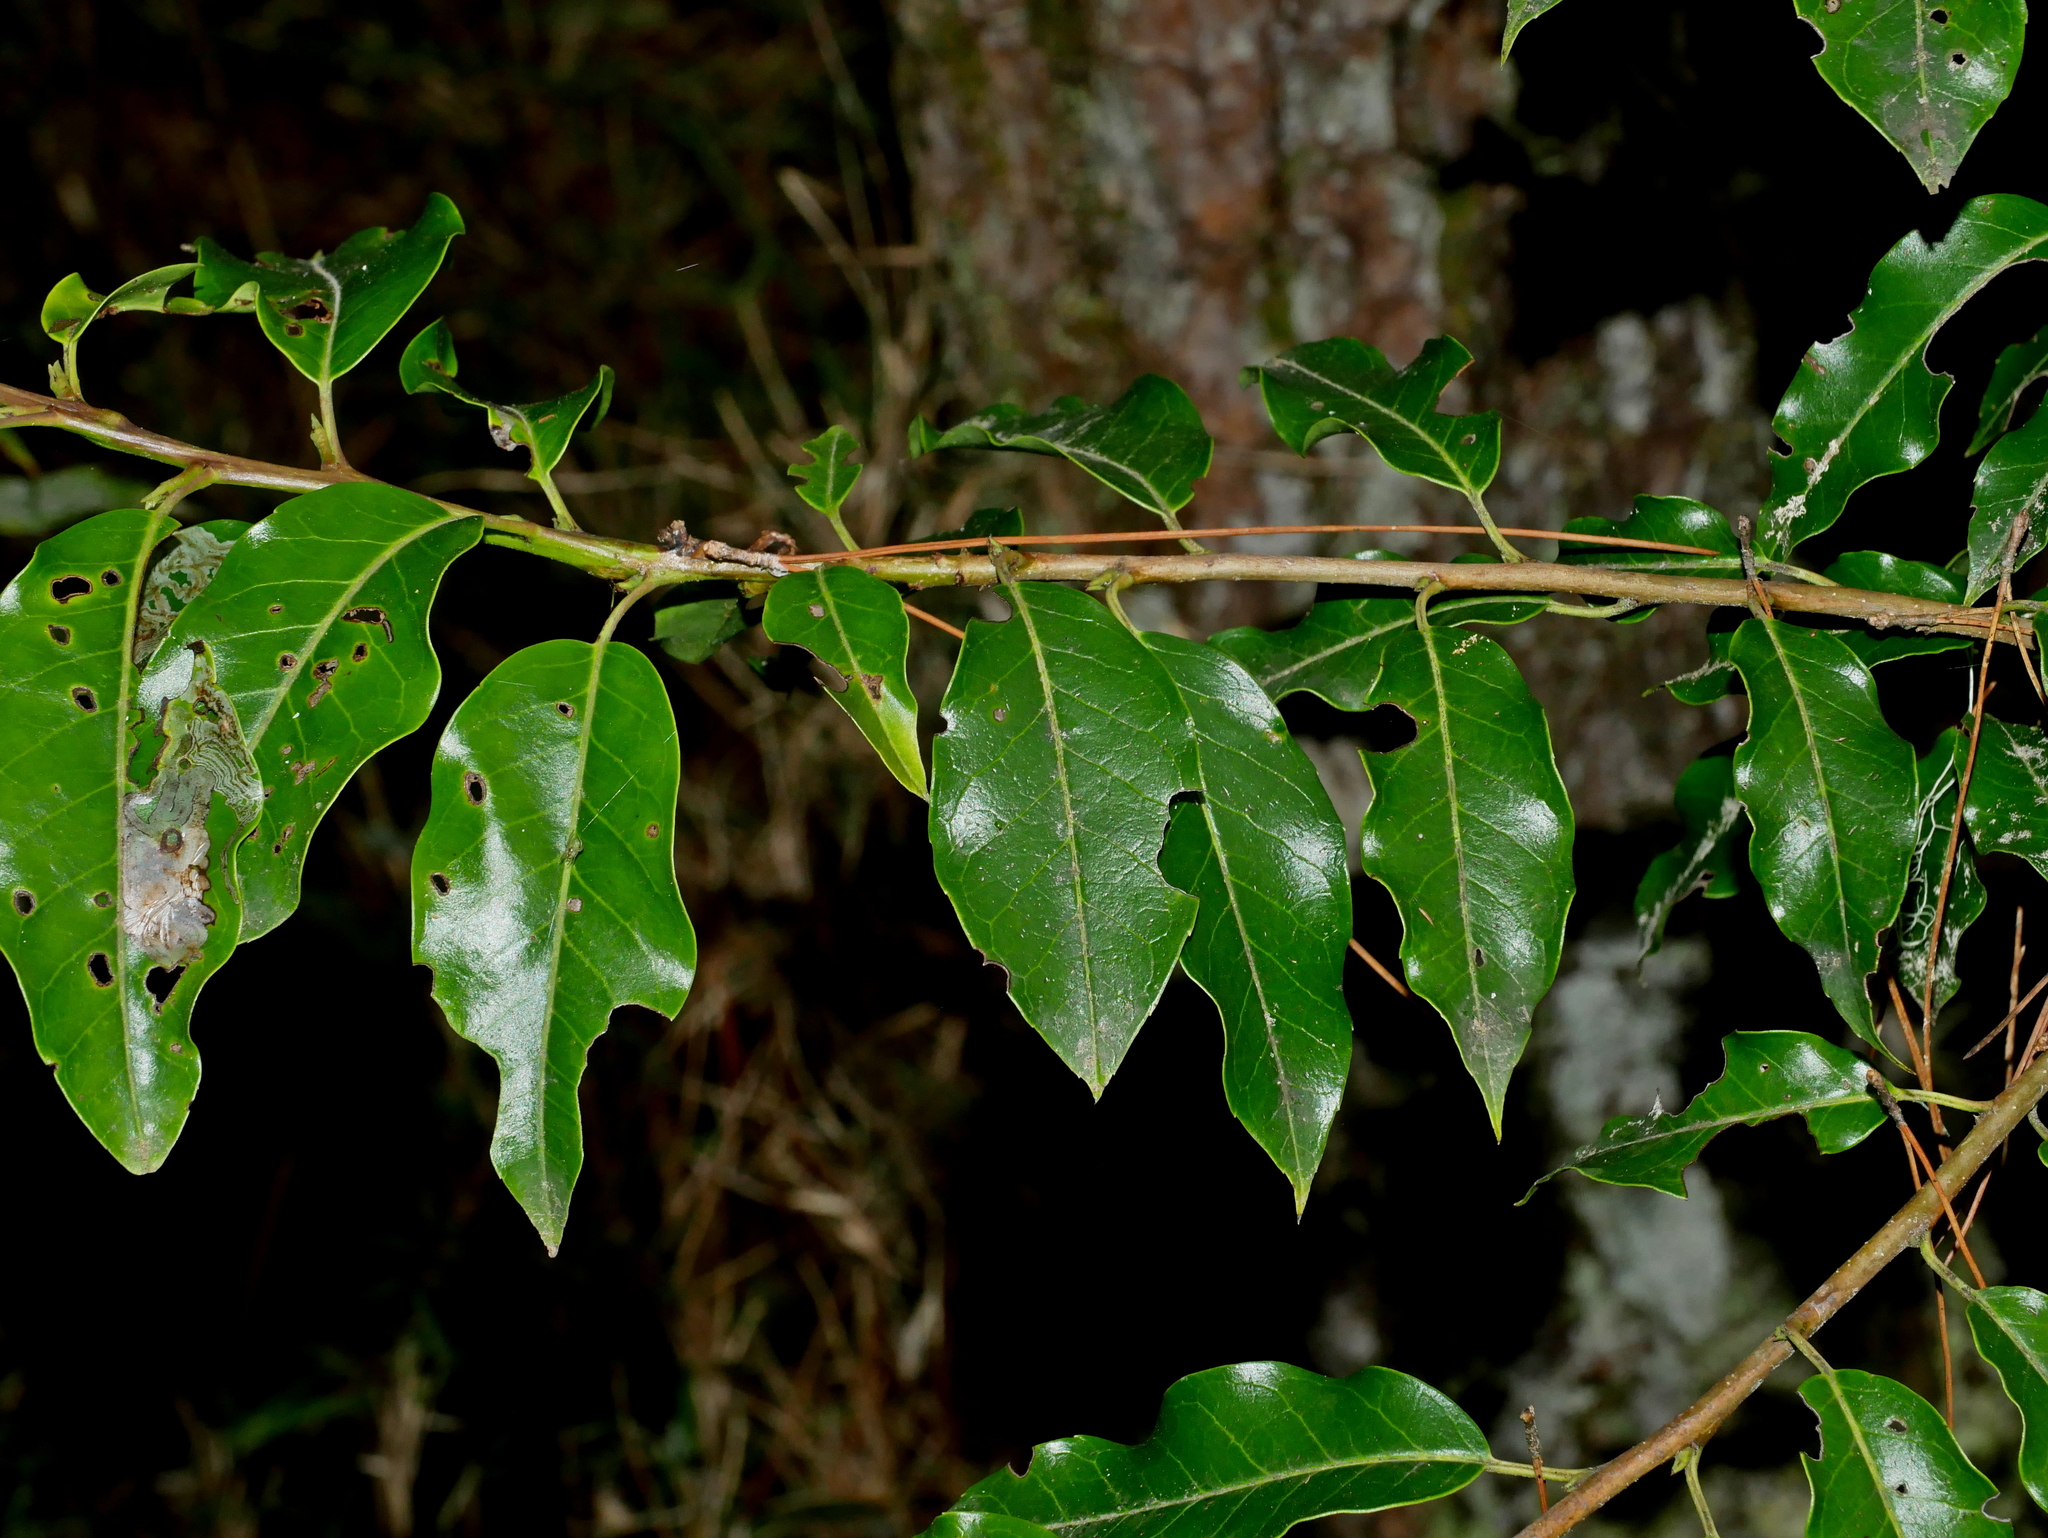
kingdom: Plantae
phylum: Tracheophyta
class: Magnoliopsida
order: Aquifoliales
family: Aquifoliaceae
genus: Ilex
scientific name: Ilex pedunculosa
